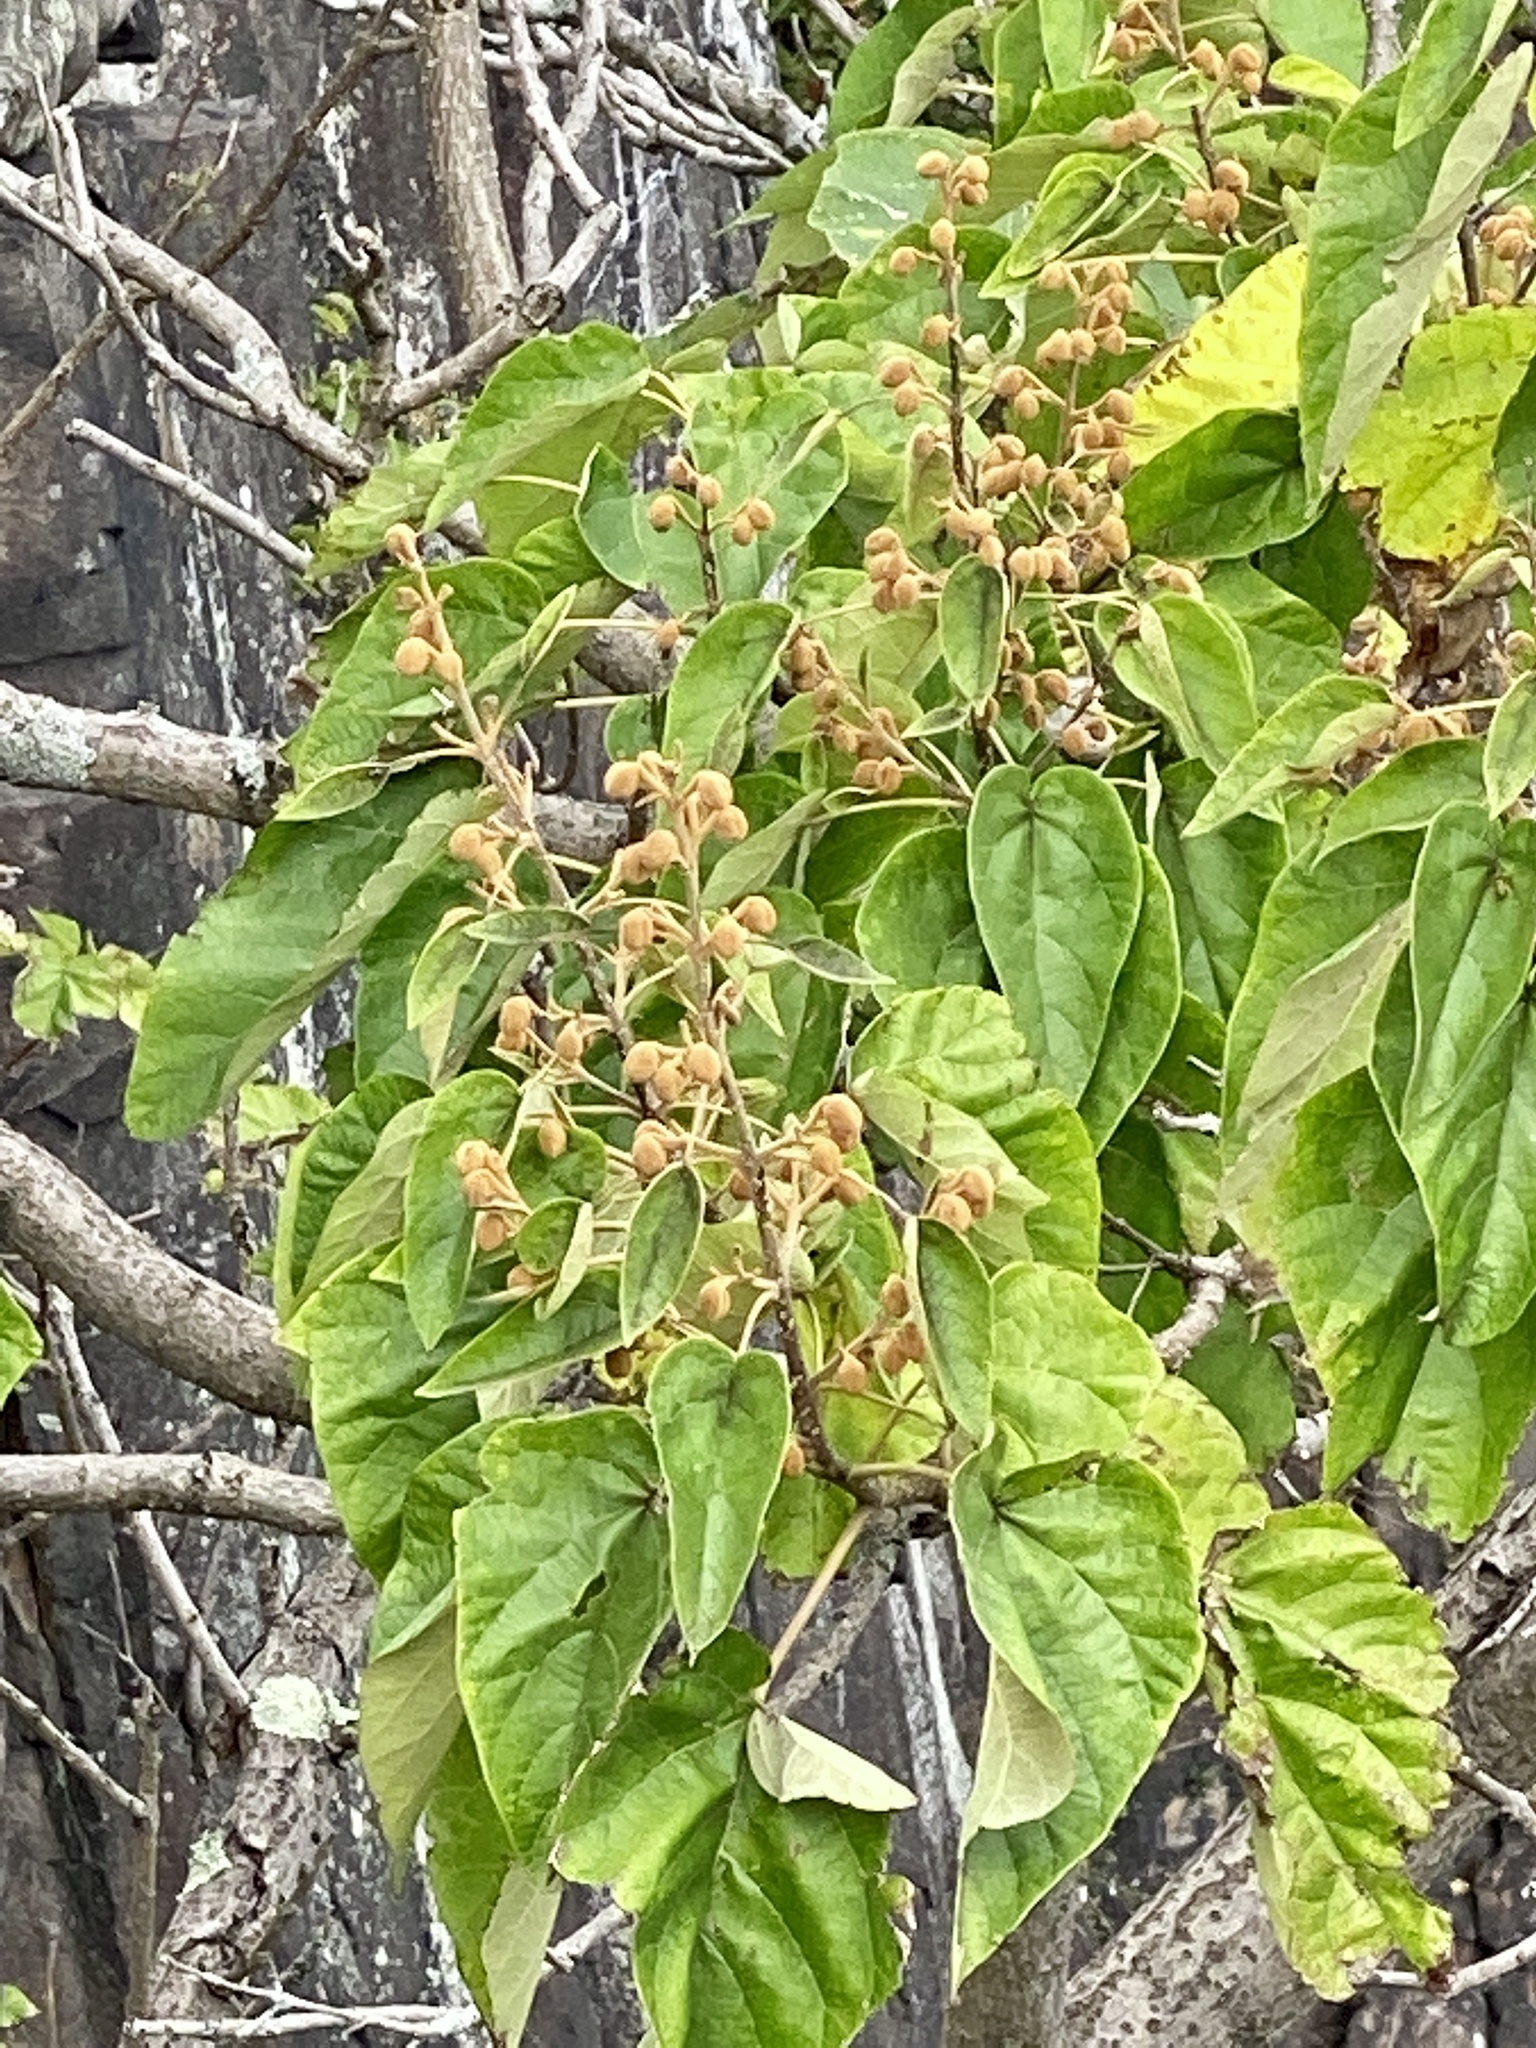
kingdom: Plantae
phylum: Tracheophyta
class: Magnoliopsida
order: Lamiales
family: Paulowniaceae
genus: Paulownia
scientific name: Paulownia tomentosa
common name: Foxglove-tree
